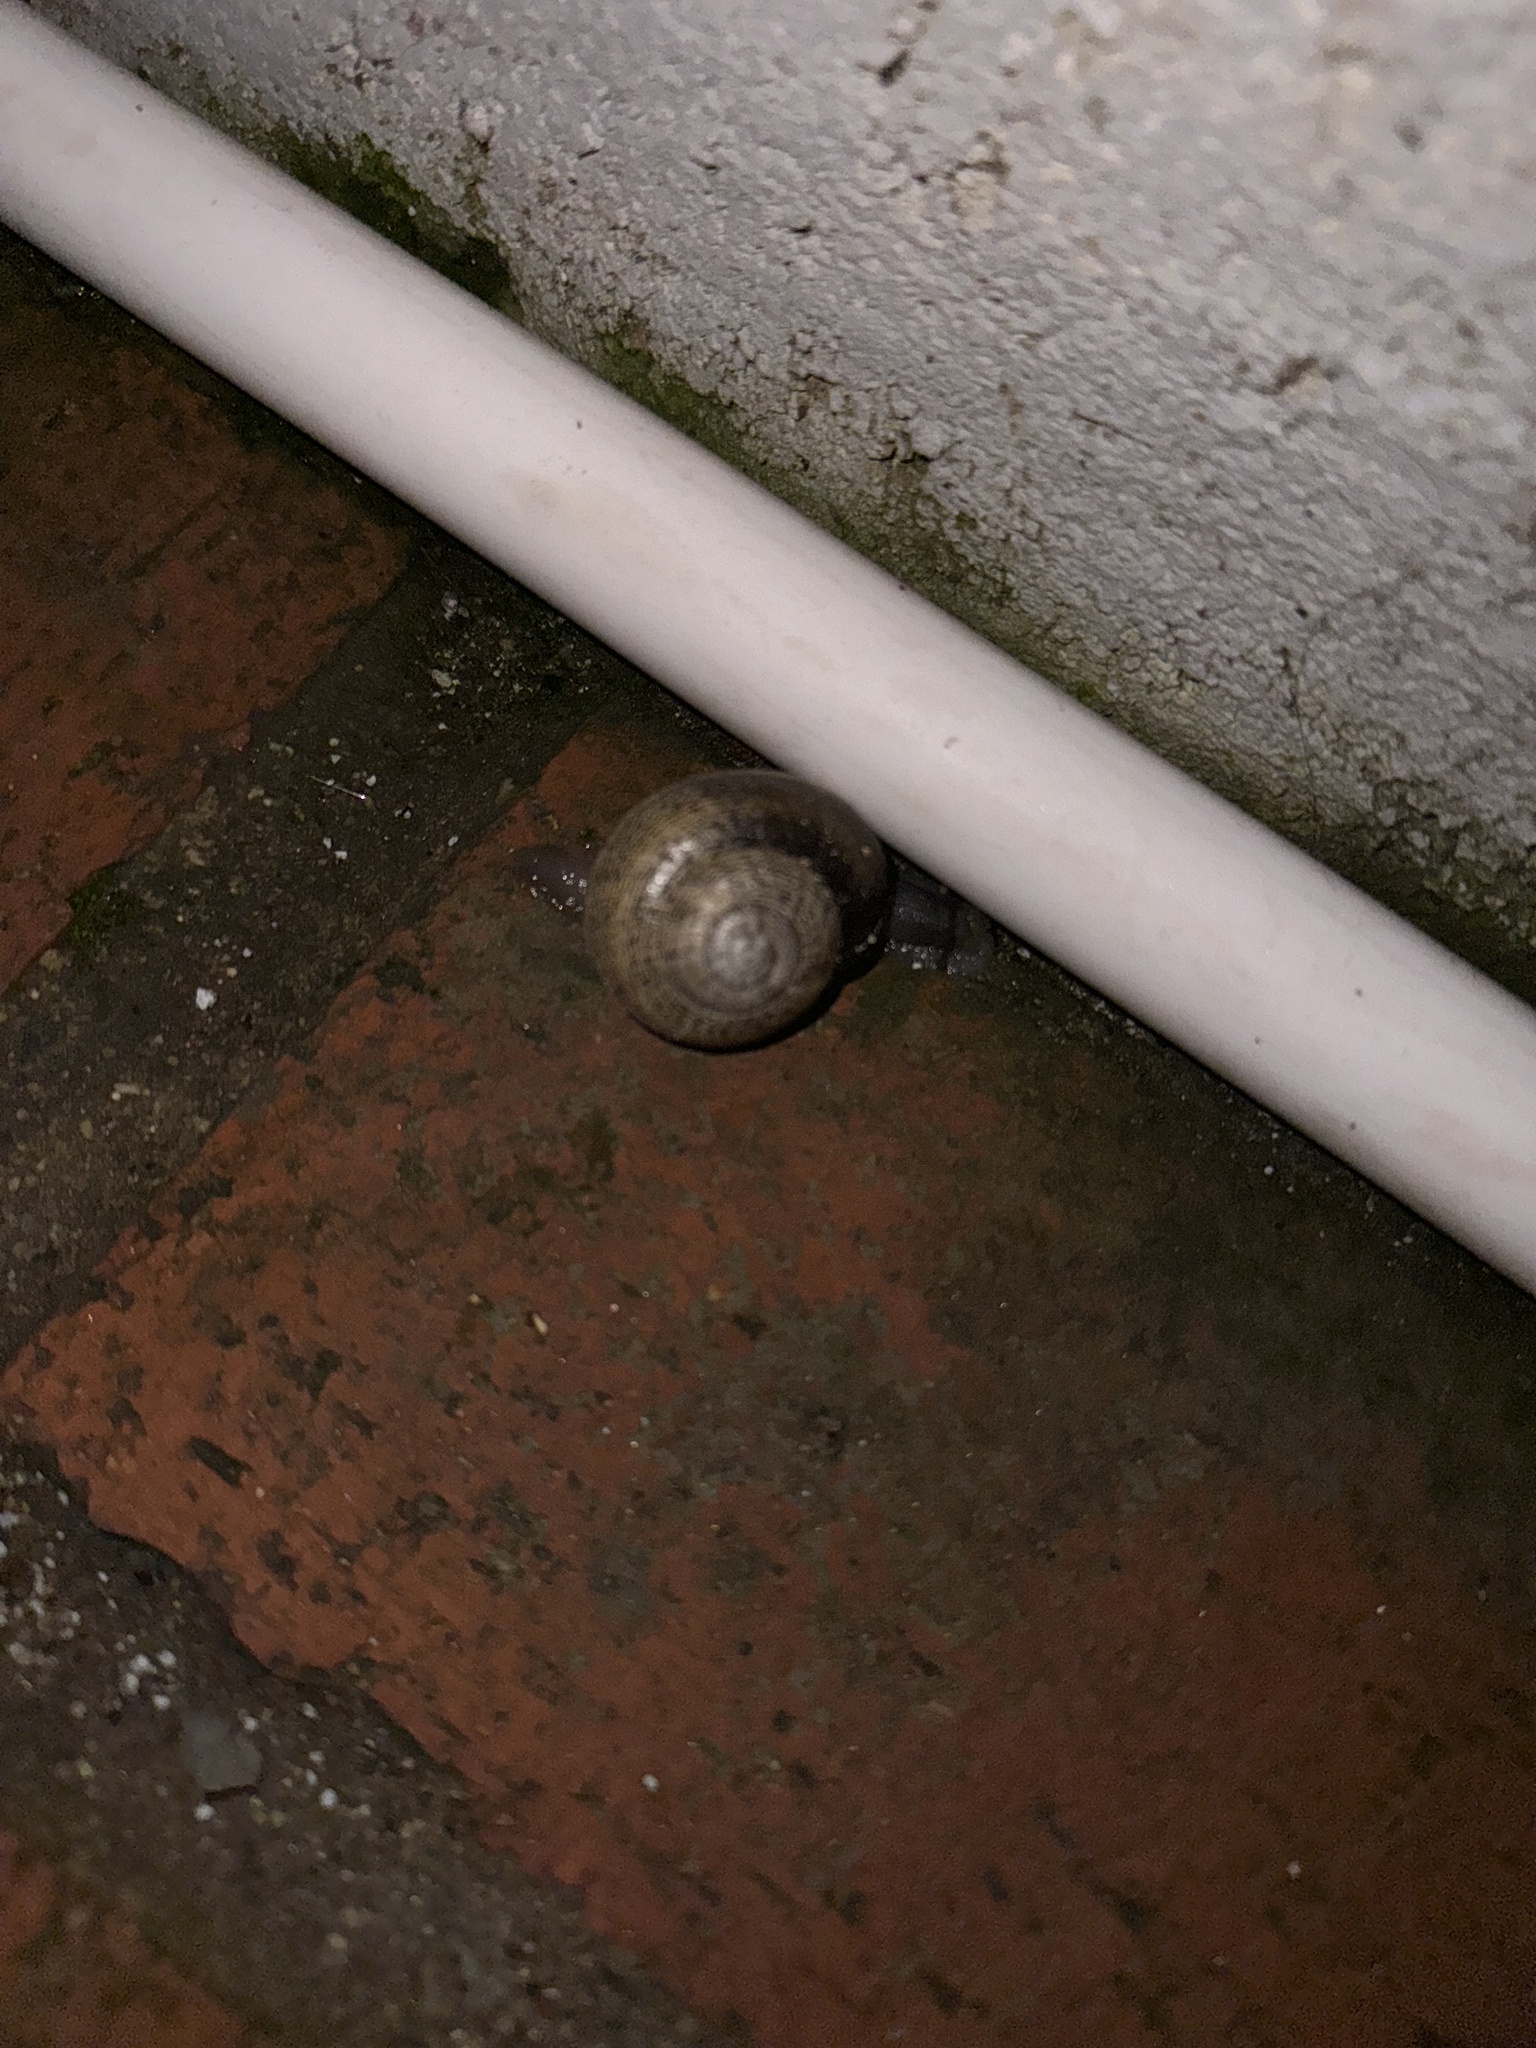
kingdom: Animalia
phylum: Mollusca
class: Gastropoda
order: Stylommatophora
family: Helicidae
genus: Otala
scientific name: Otala lactea
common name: Milk snail
